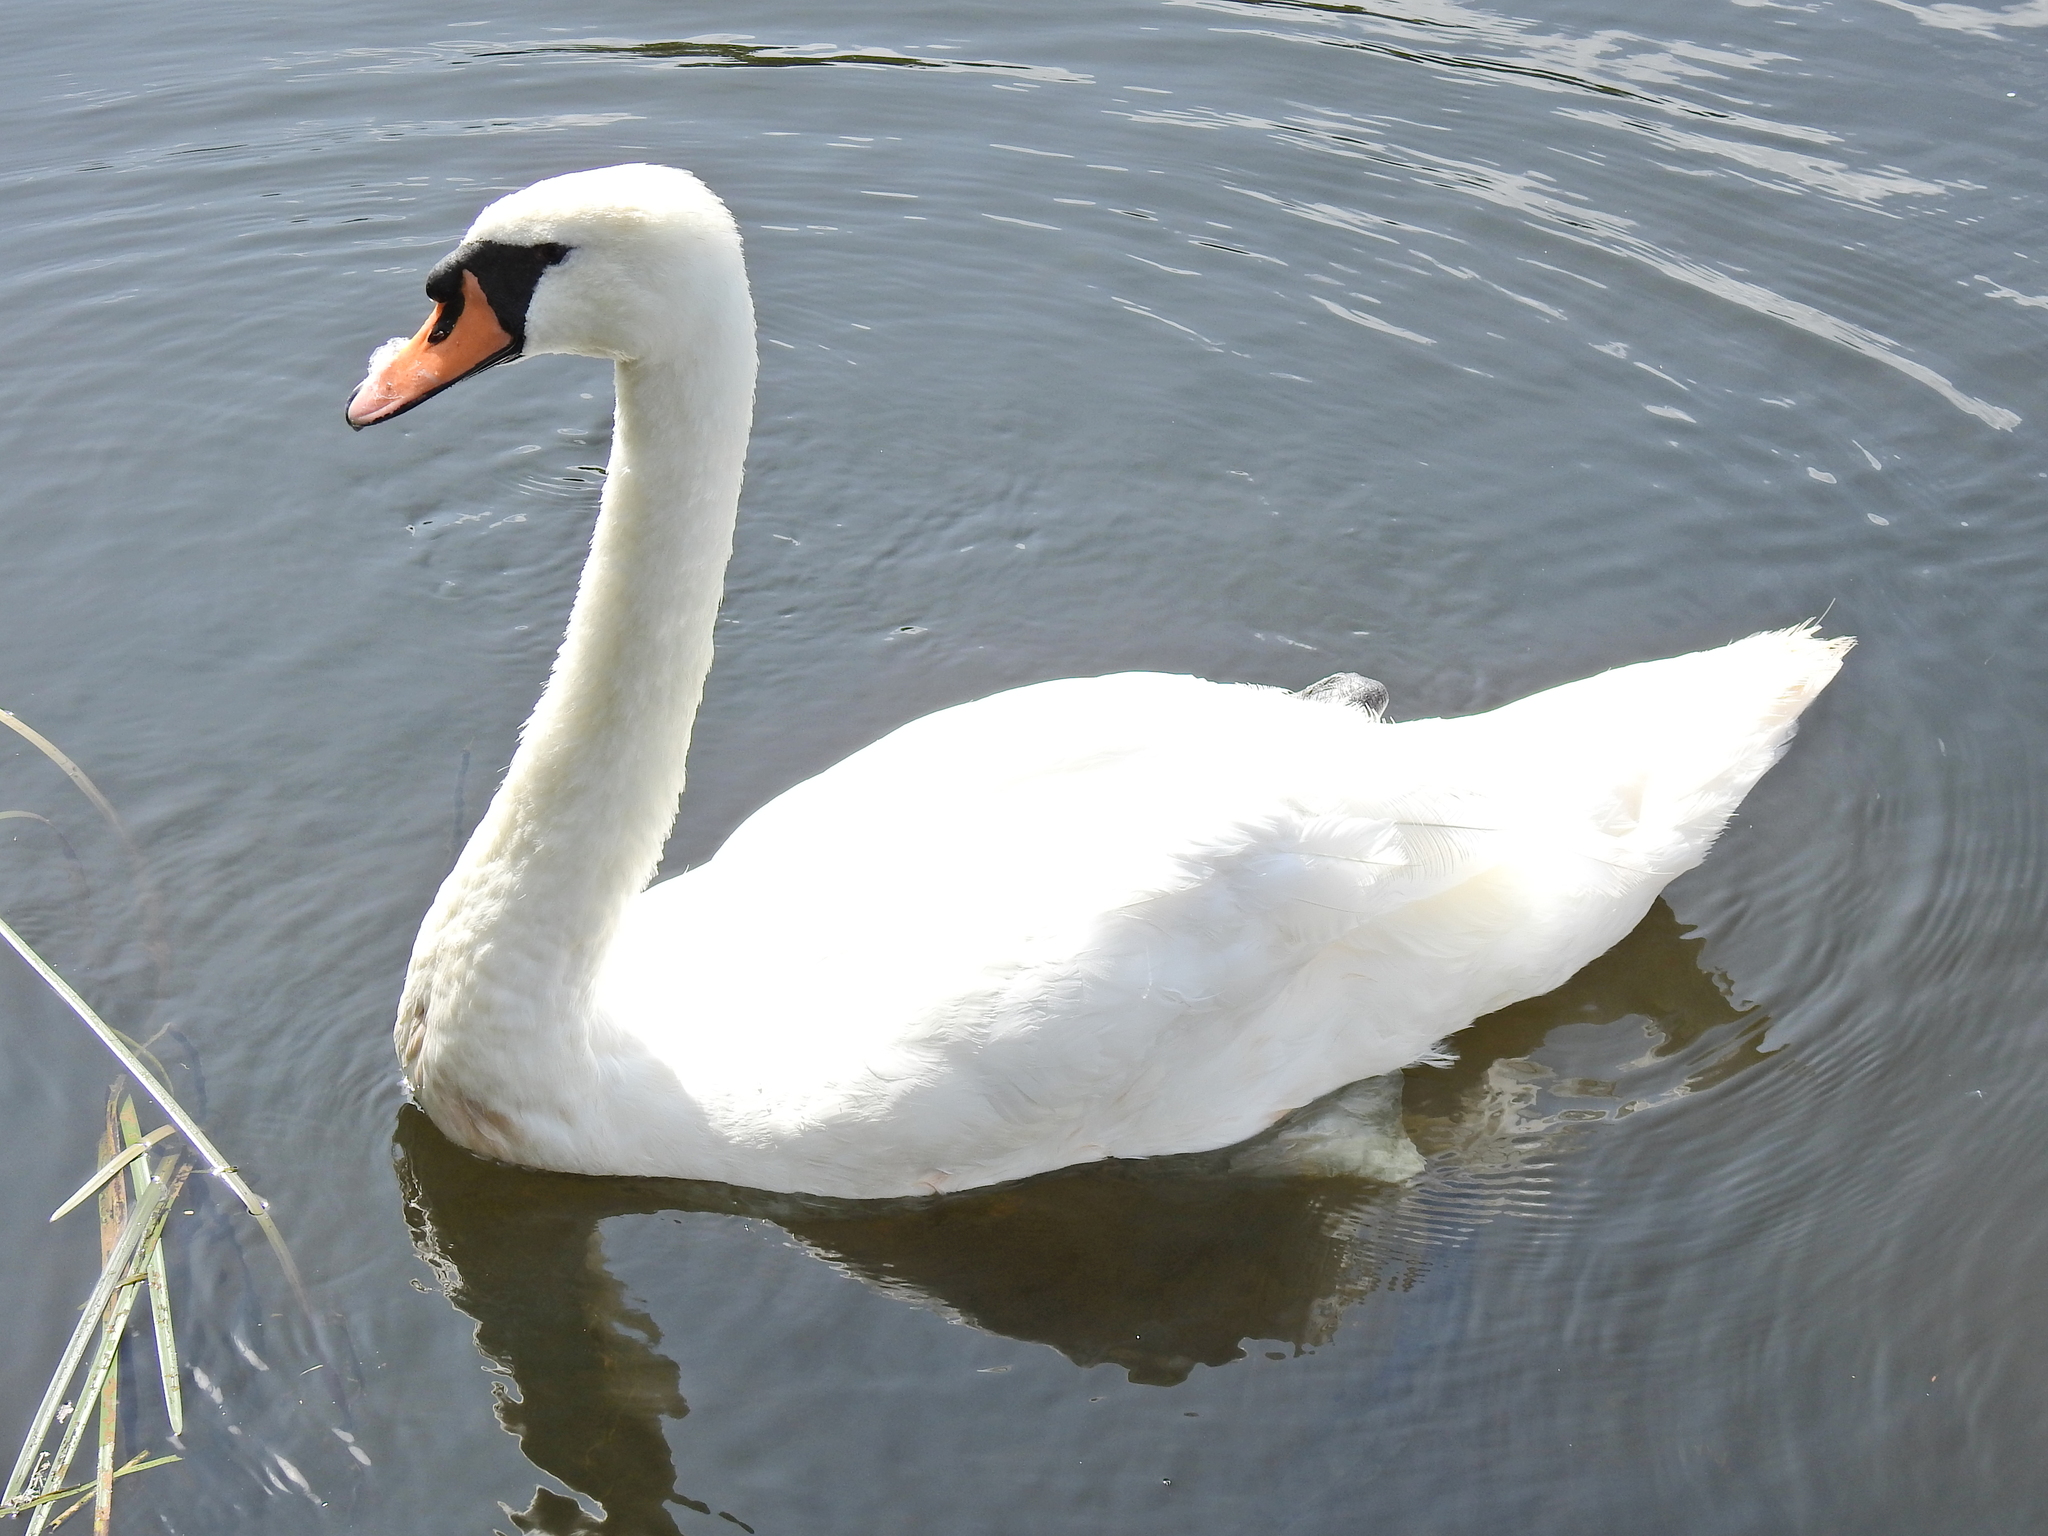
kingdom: Animalia
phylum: Chordata
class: Aves
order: Anseriformes
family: Anatidae
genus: Cygnus
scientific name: Cygnus olor
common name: Mute swan
